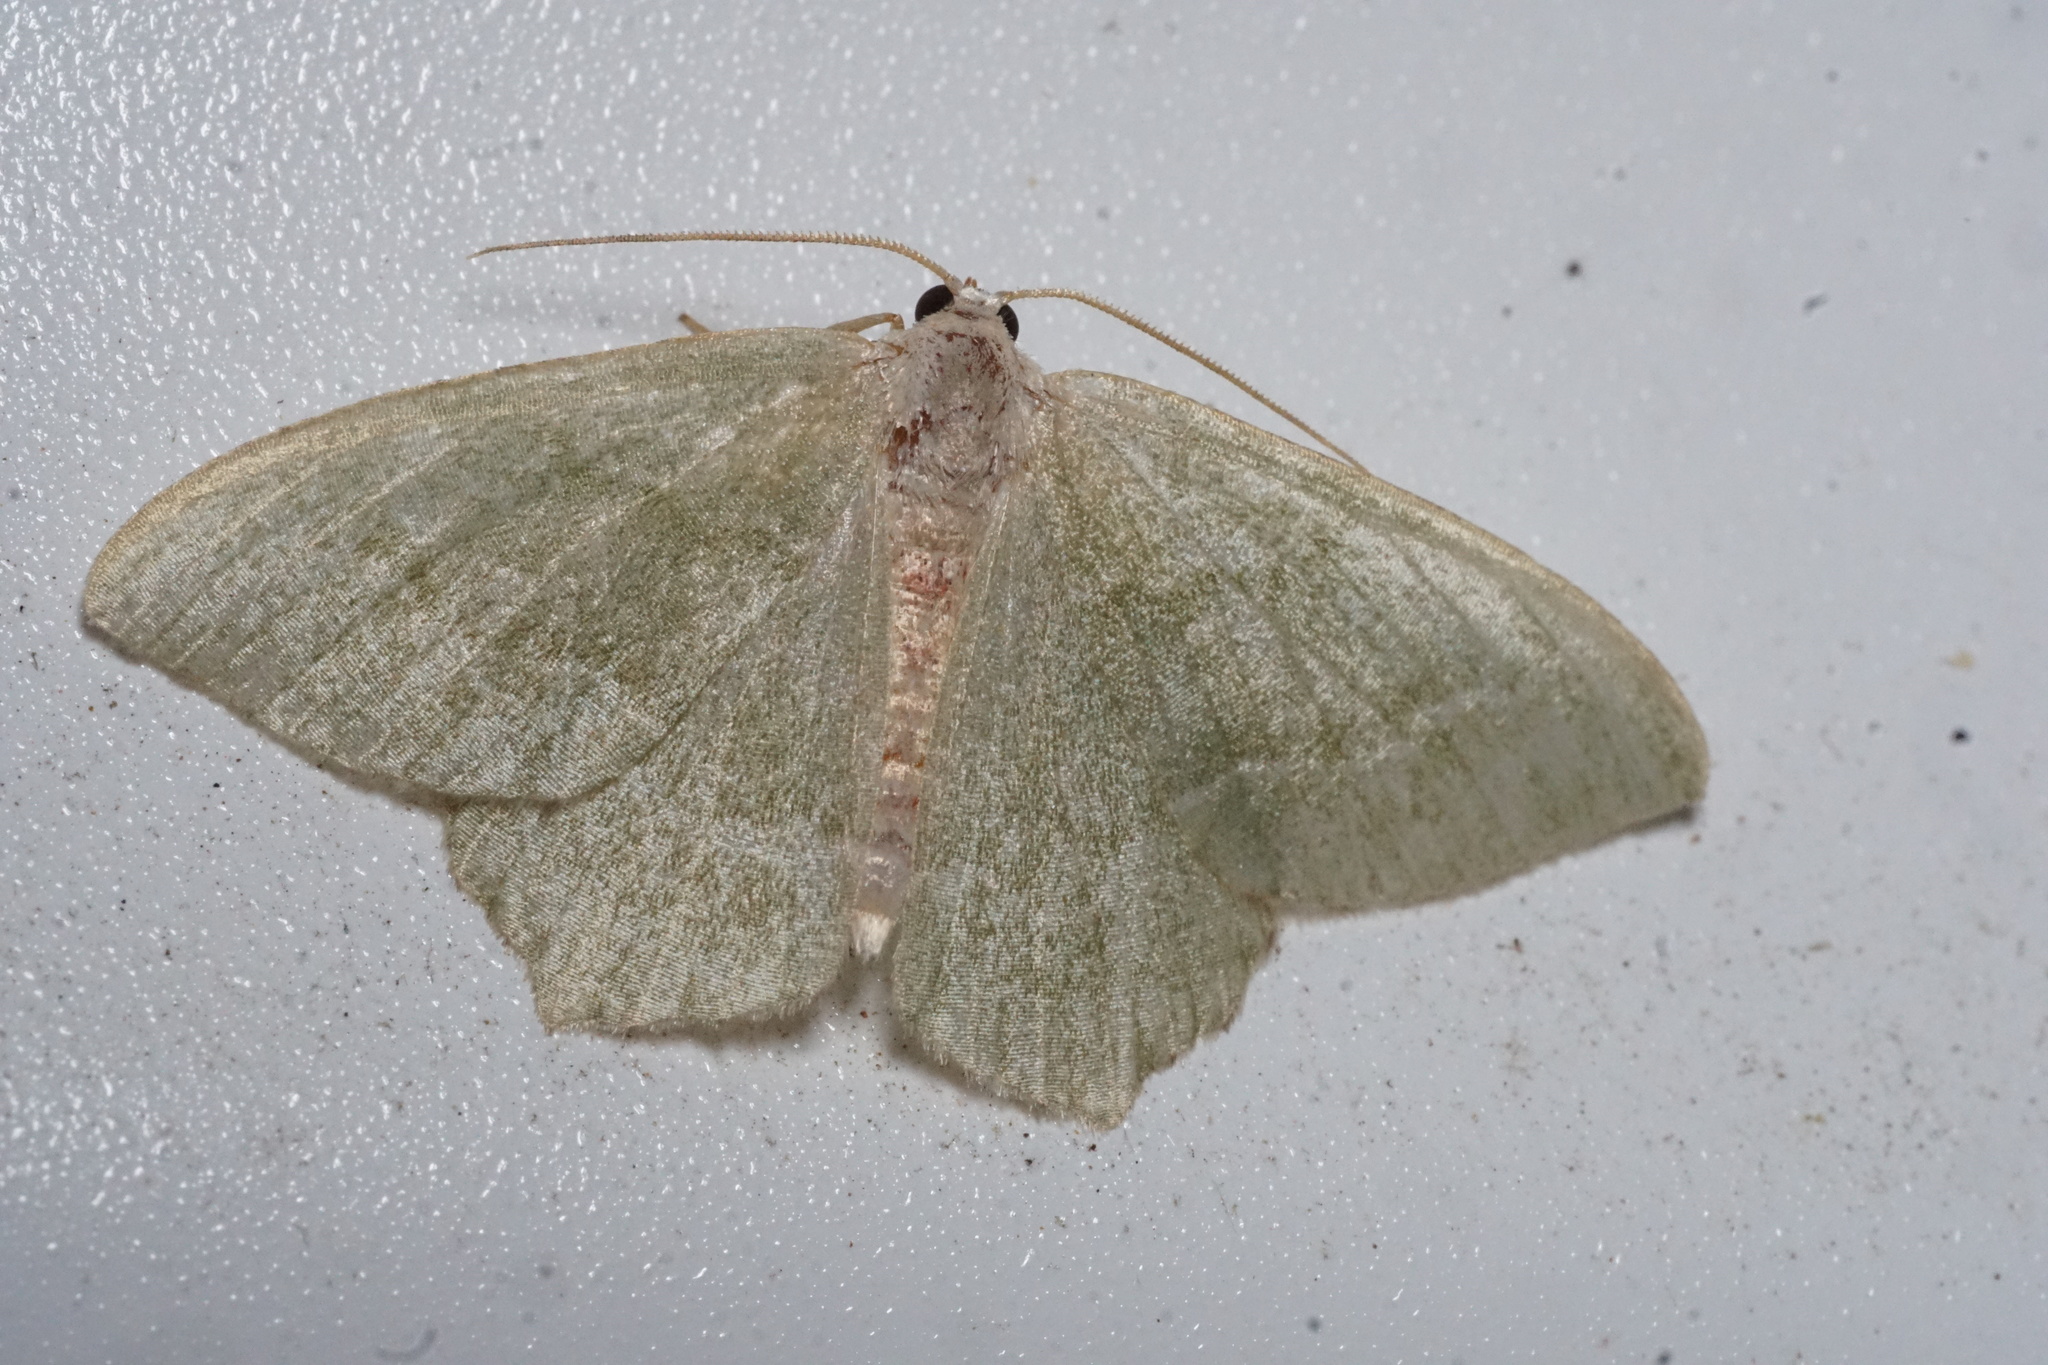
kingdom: Animalia
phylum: Arthropoda
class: Insecta
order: Lepidoptera
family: Geometridae
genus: Hemithea
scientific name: Hemithea aestivaria
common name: Common emerald
